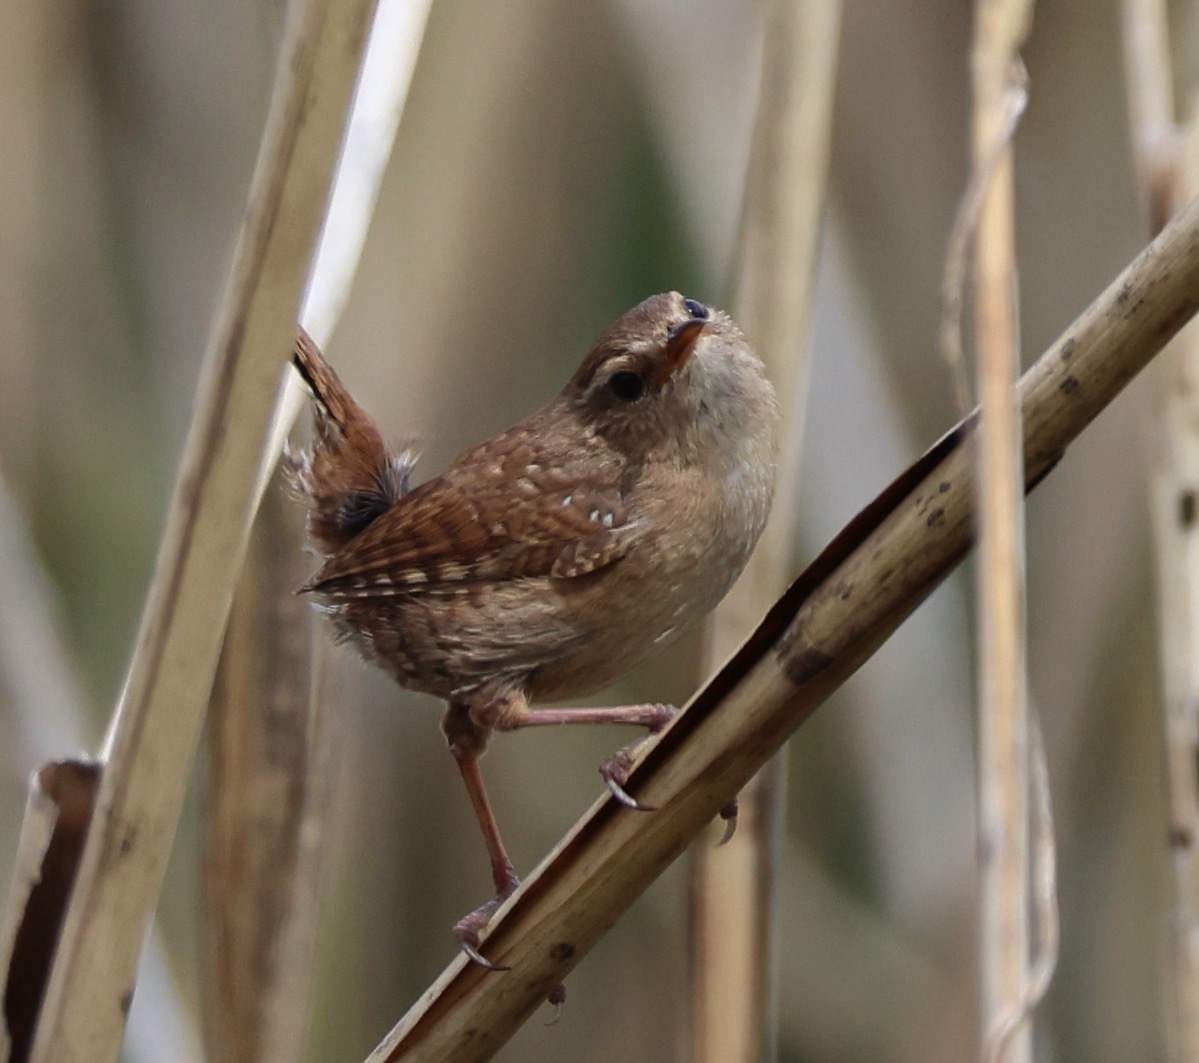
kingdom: Animalia
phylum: Chordata
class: Aves
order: Passeriformes
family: Troglodytidae
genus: Troglodytes
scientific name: Troglodytes troglodytes
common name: Eurasian wren
